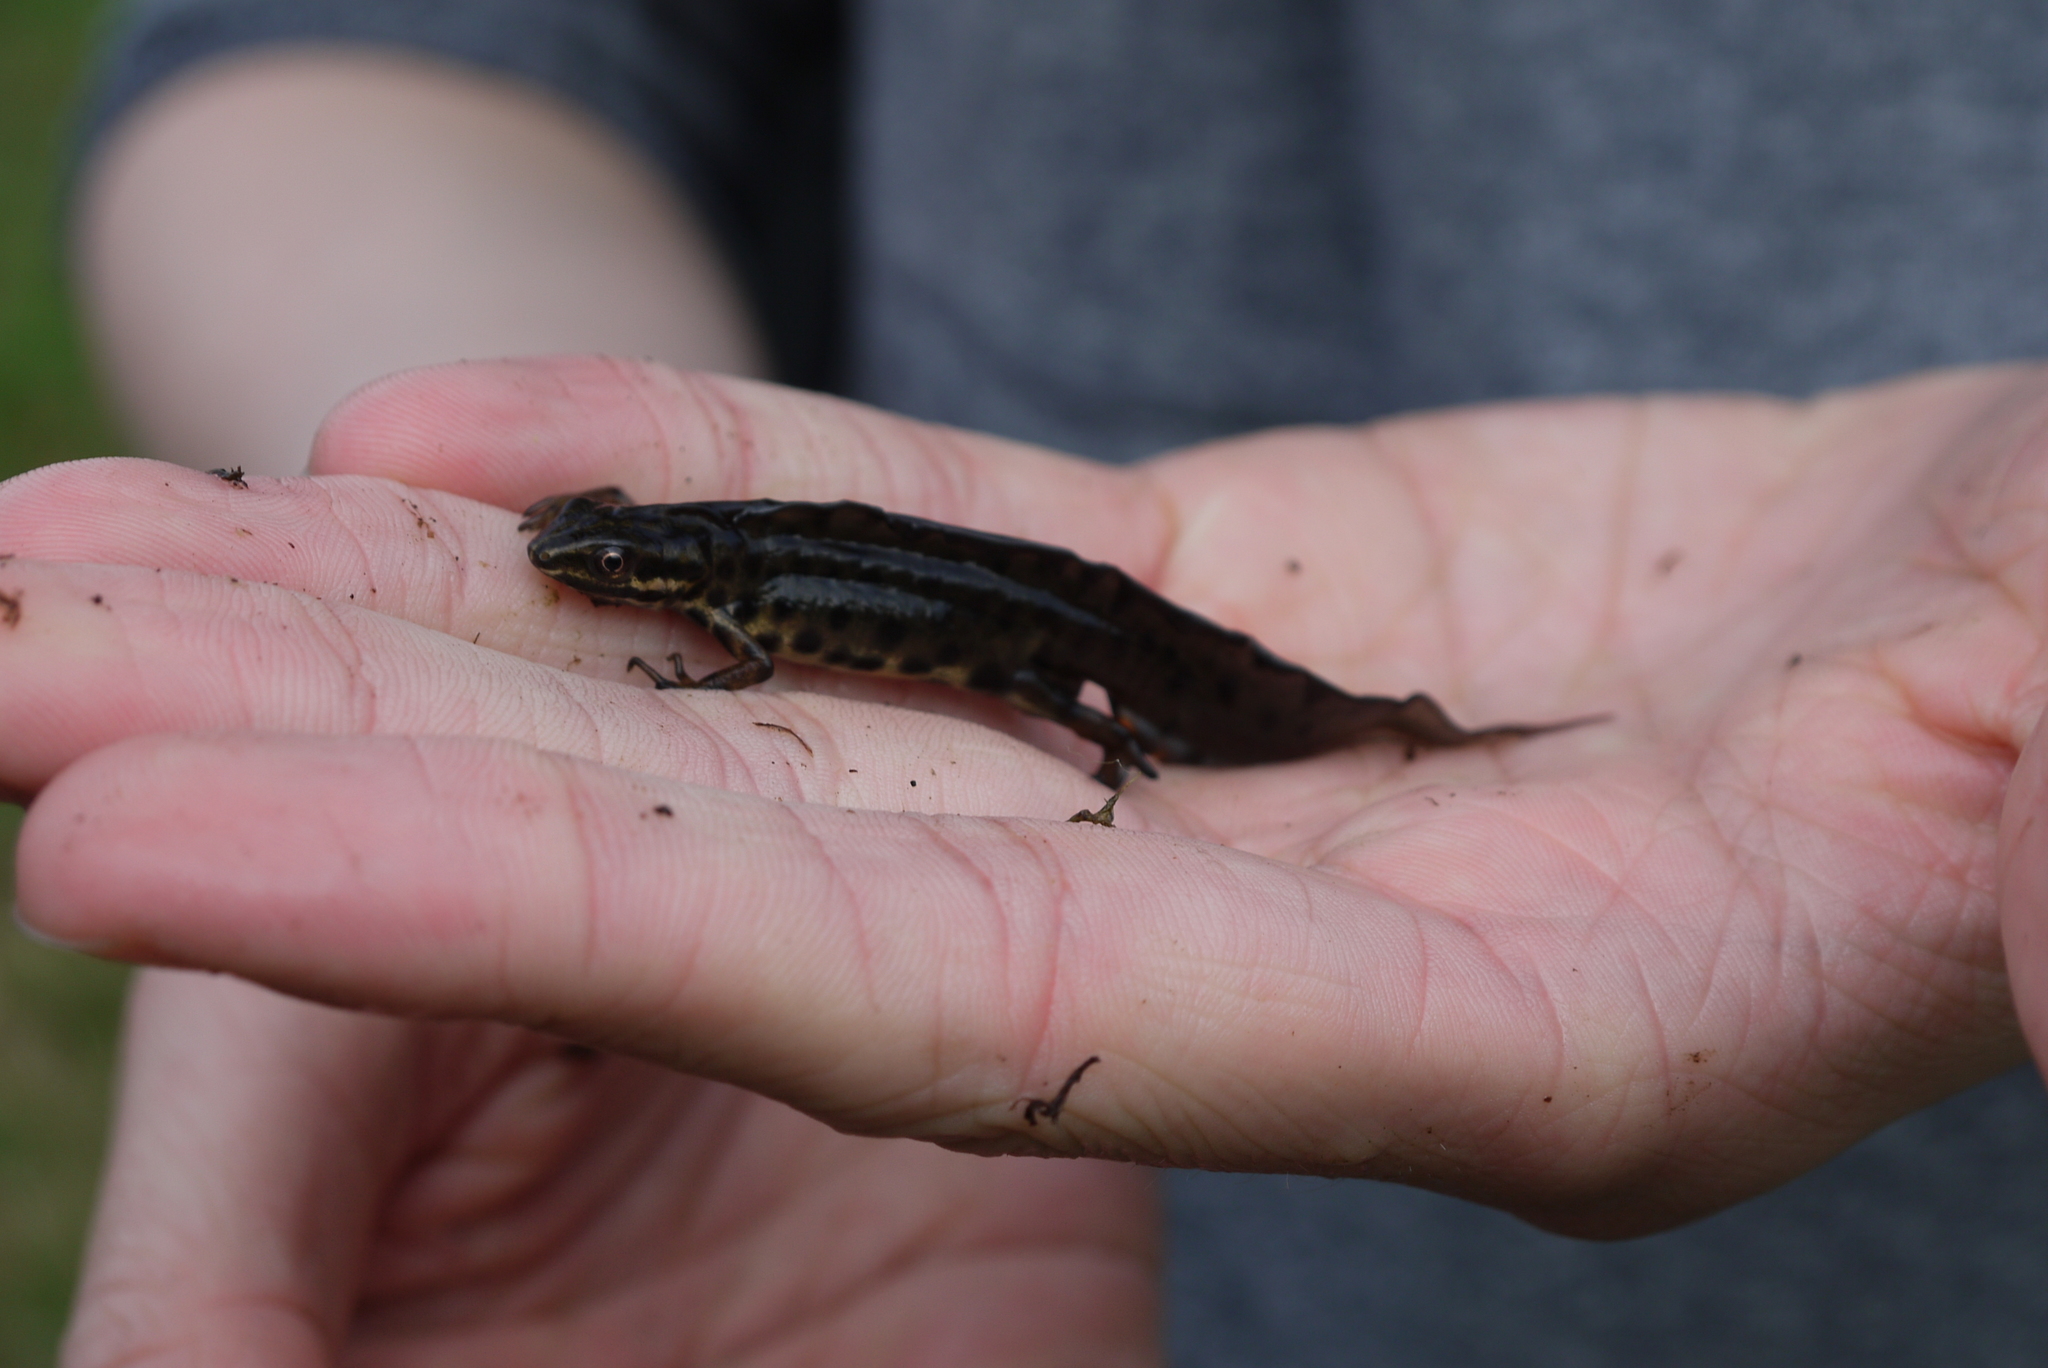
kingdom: Animalia
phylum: Chordata
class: Amphibia
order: Caudata
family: Salamandridae
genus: Lissotriton
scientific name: Lissotriton vulgaris
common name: Smooth newt
